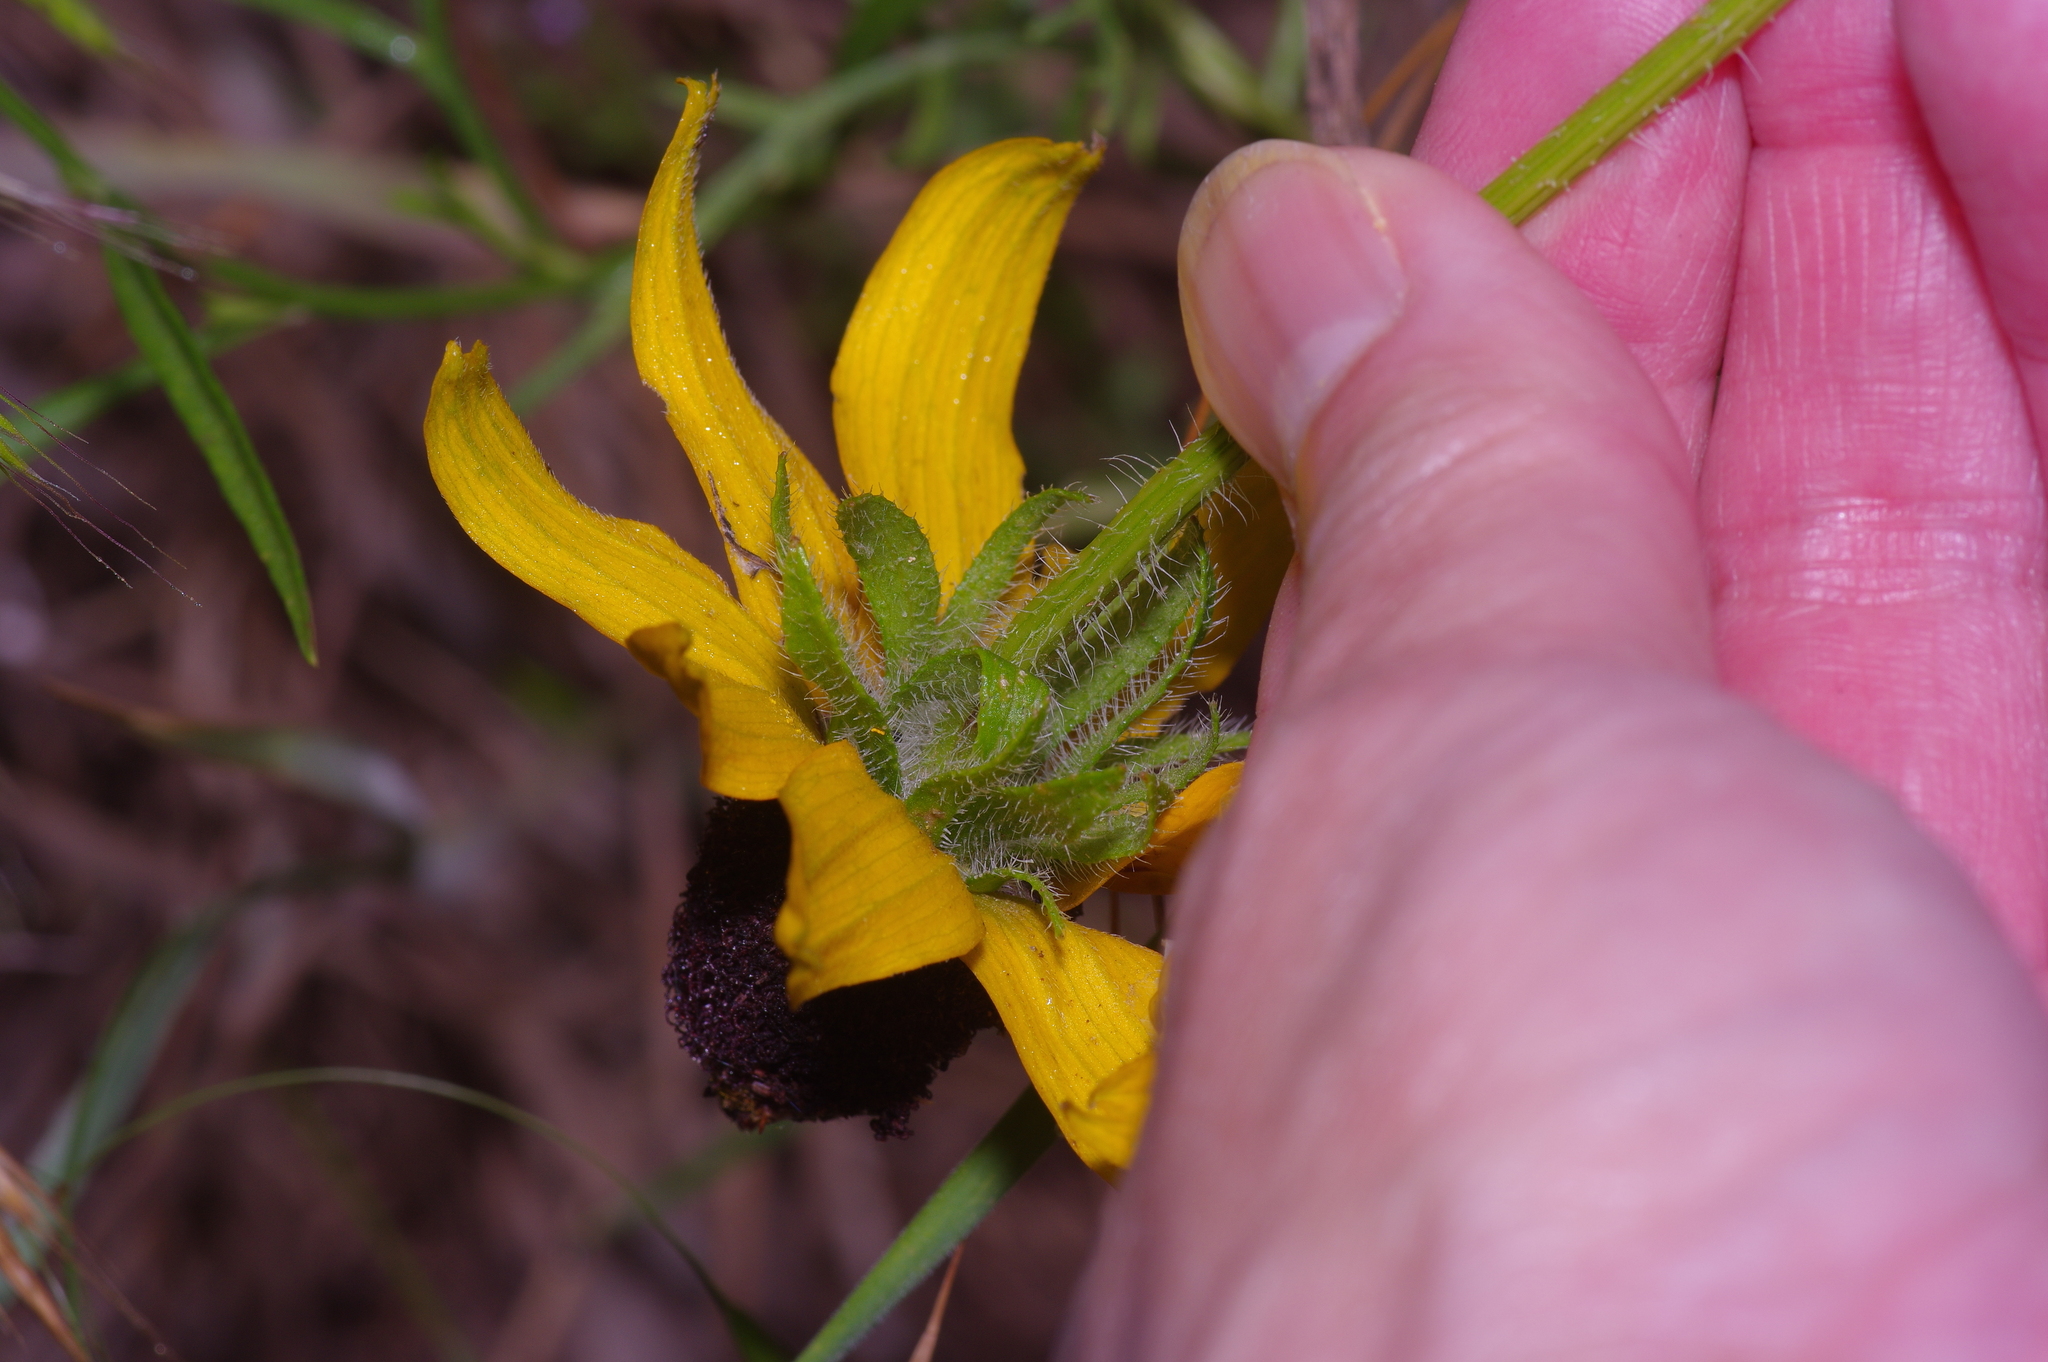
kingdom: Plantae
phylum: Tracheophyta
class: Magnoliopsida
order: Asterales
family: Asteraceae
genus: Rudbeckia
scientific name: Rudbeckia hirta
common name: Black-eyed-susan
